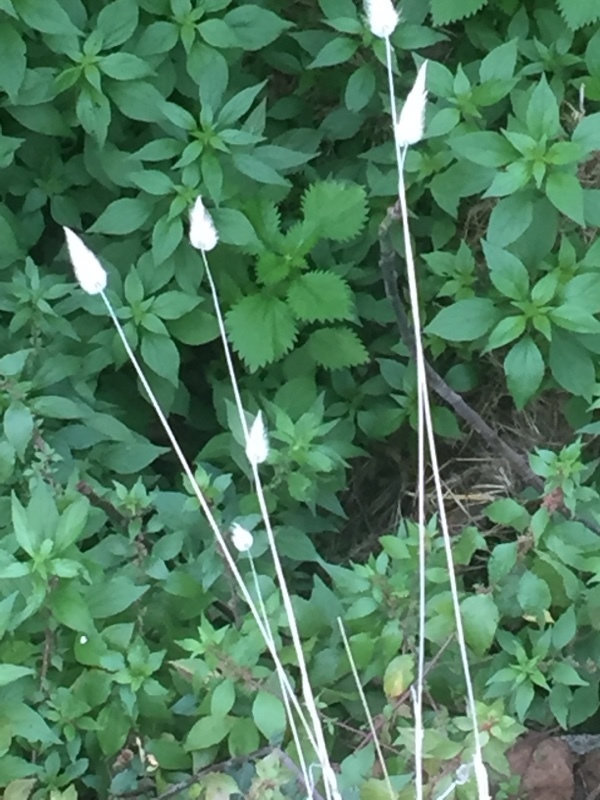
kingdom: Plantae
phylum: Tracheophyta
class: Liliopsida
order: Poales
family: Poaceae
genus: Lagurus
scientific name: Lagurus ovatus
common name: Hare's-tail
